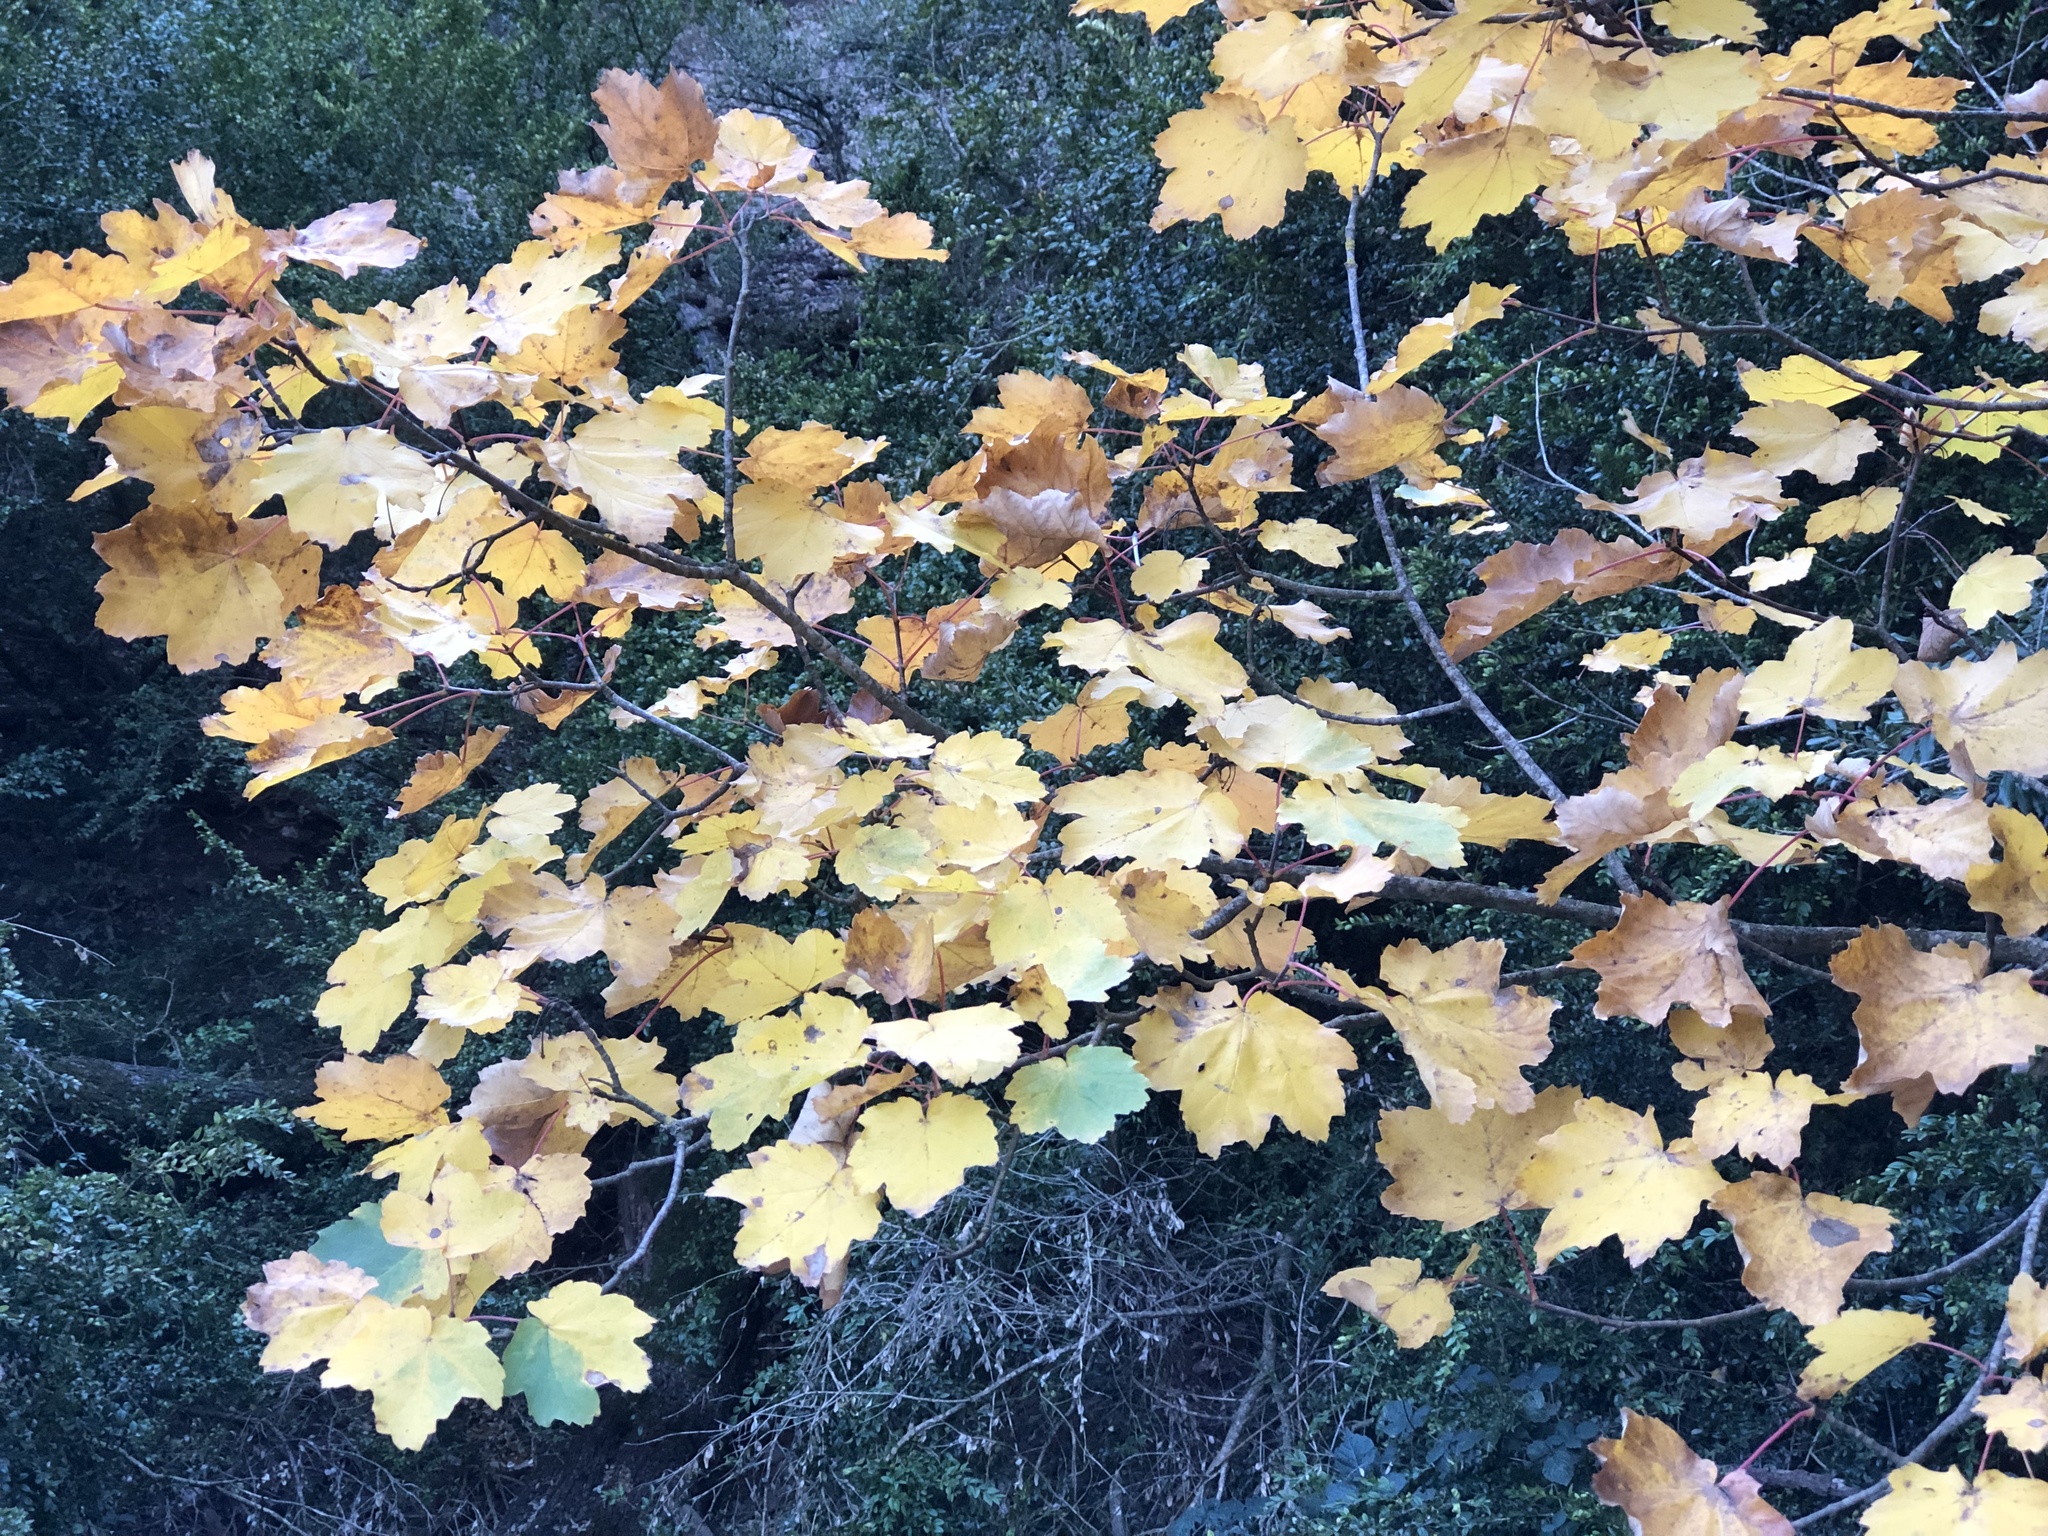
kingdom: Plantae
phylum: Tracheophyta
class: Magnoliopsida
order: Sapindales
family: Sapindaceae
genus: Acer
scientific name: Acer opalus
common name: Italian maple
